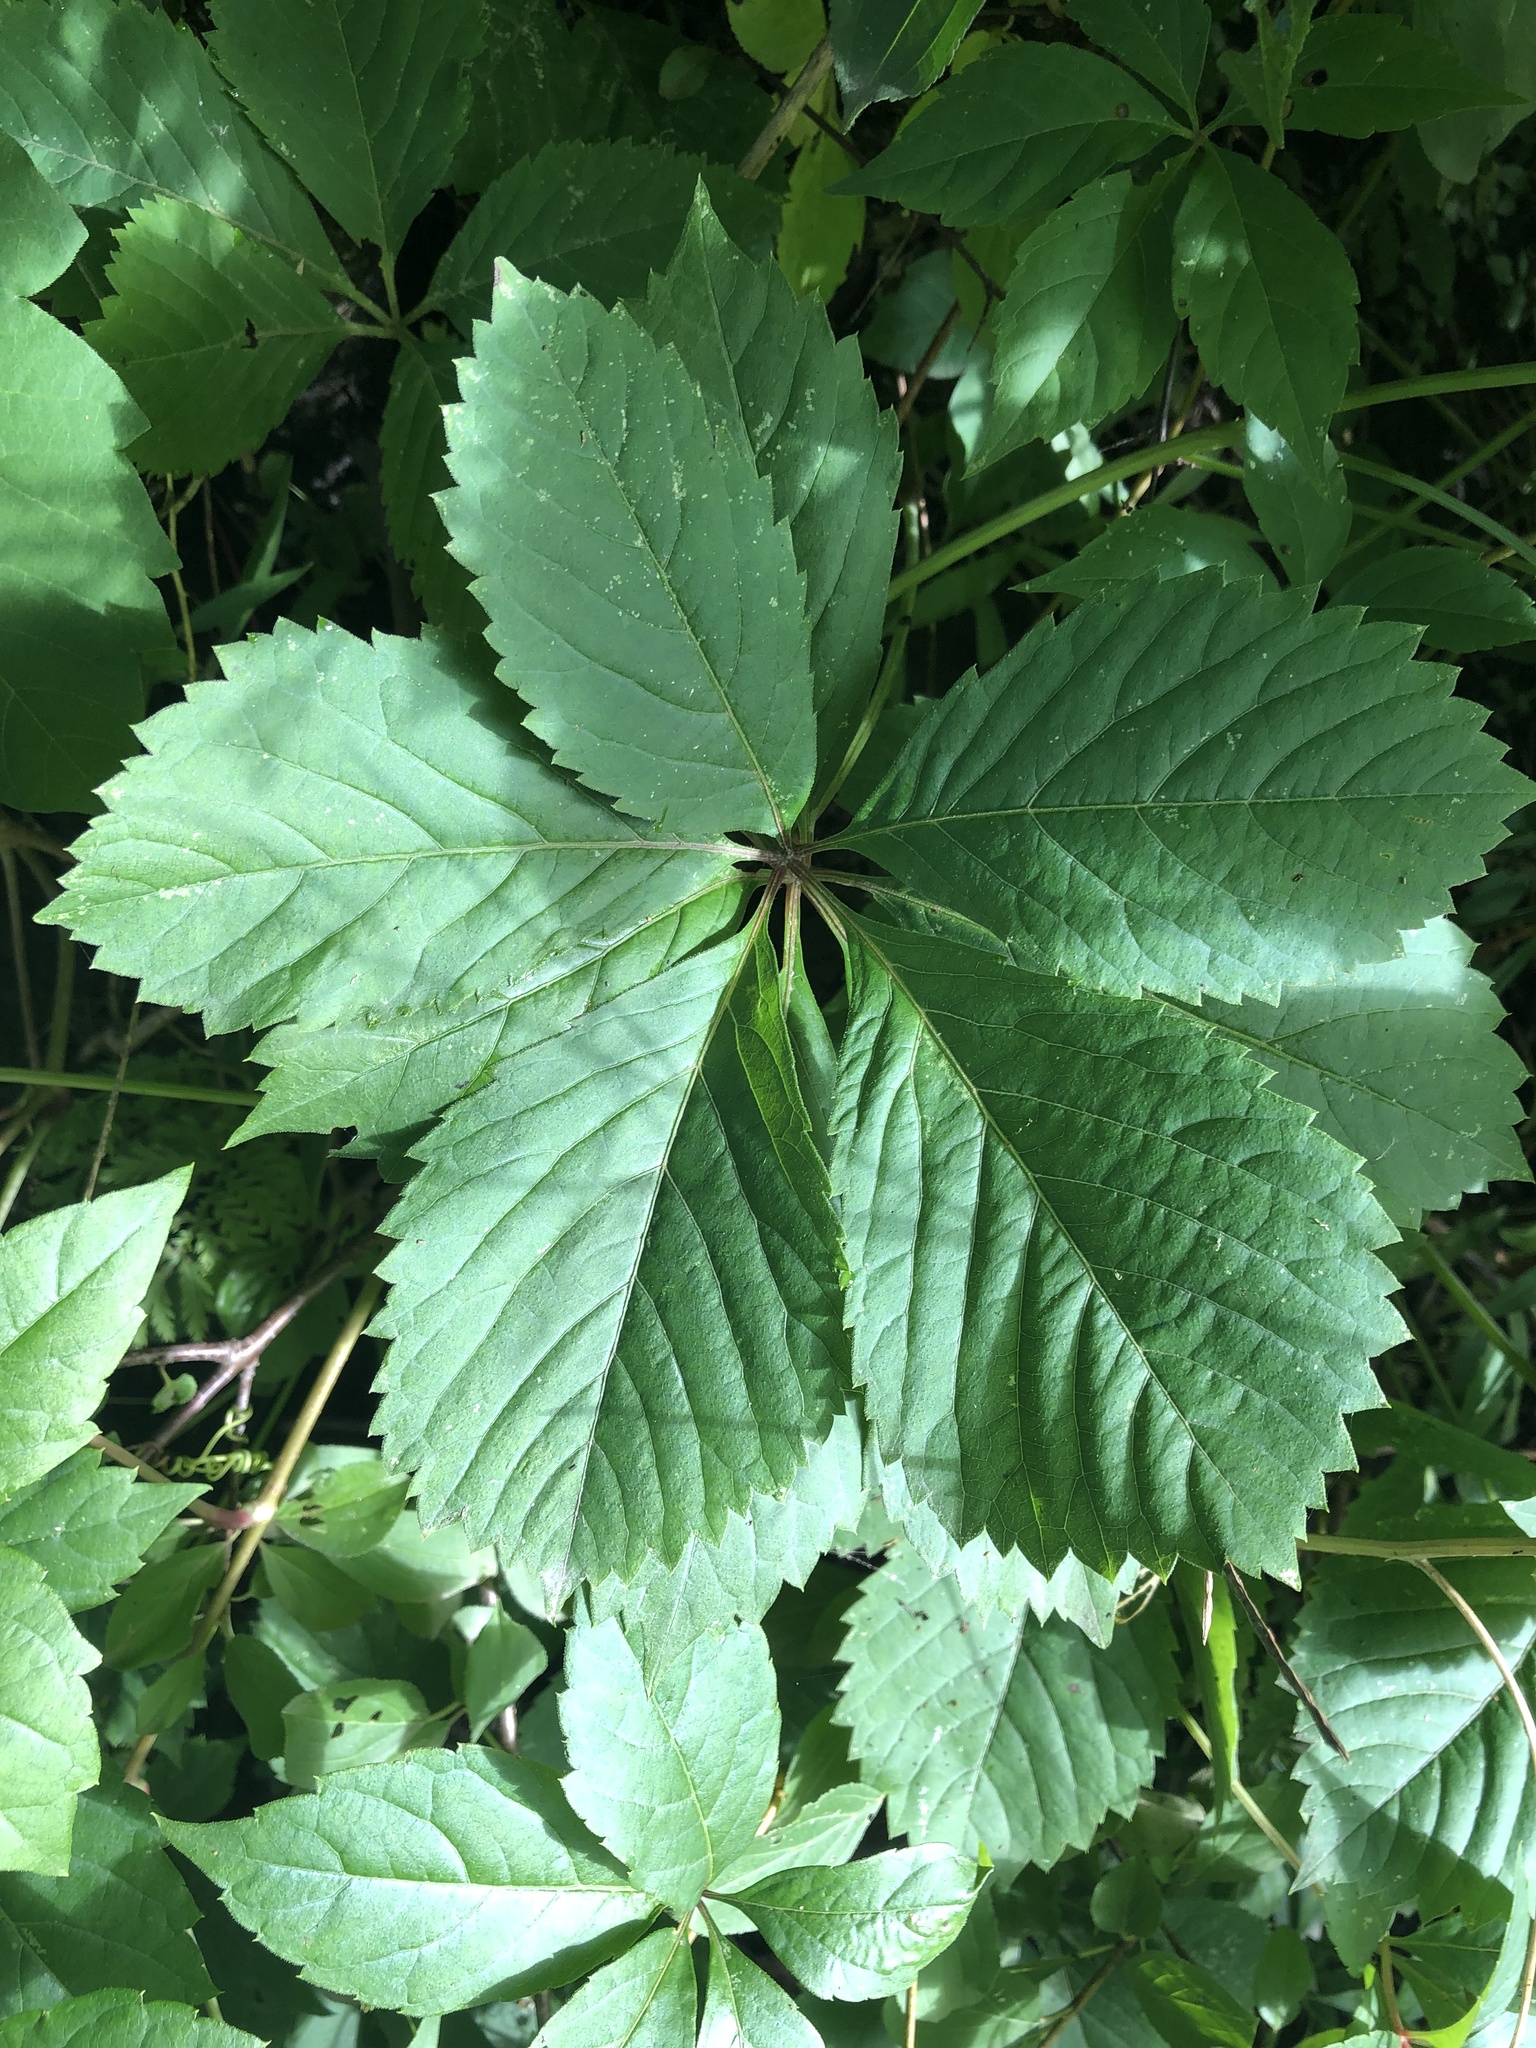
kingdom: Plantae
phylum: Tracheophyta
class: Magnoliopsida
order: Vitales
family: Vitaceae
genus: Parthenocissus
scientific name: Parthenocissus inserta
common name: False virginia-creeper
